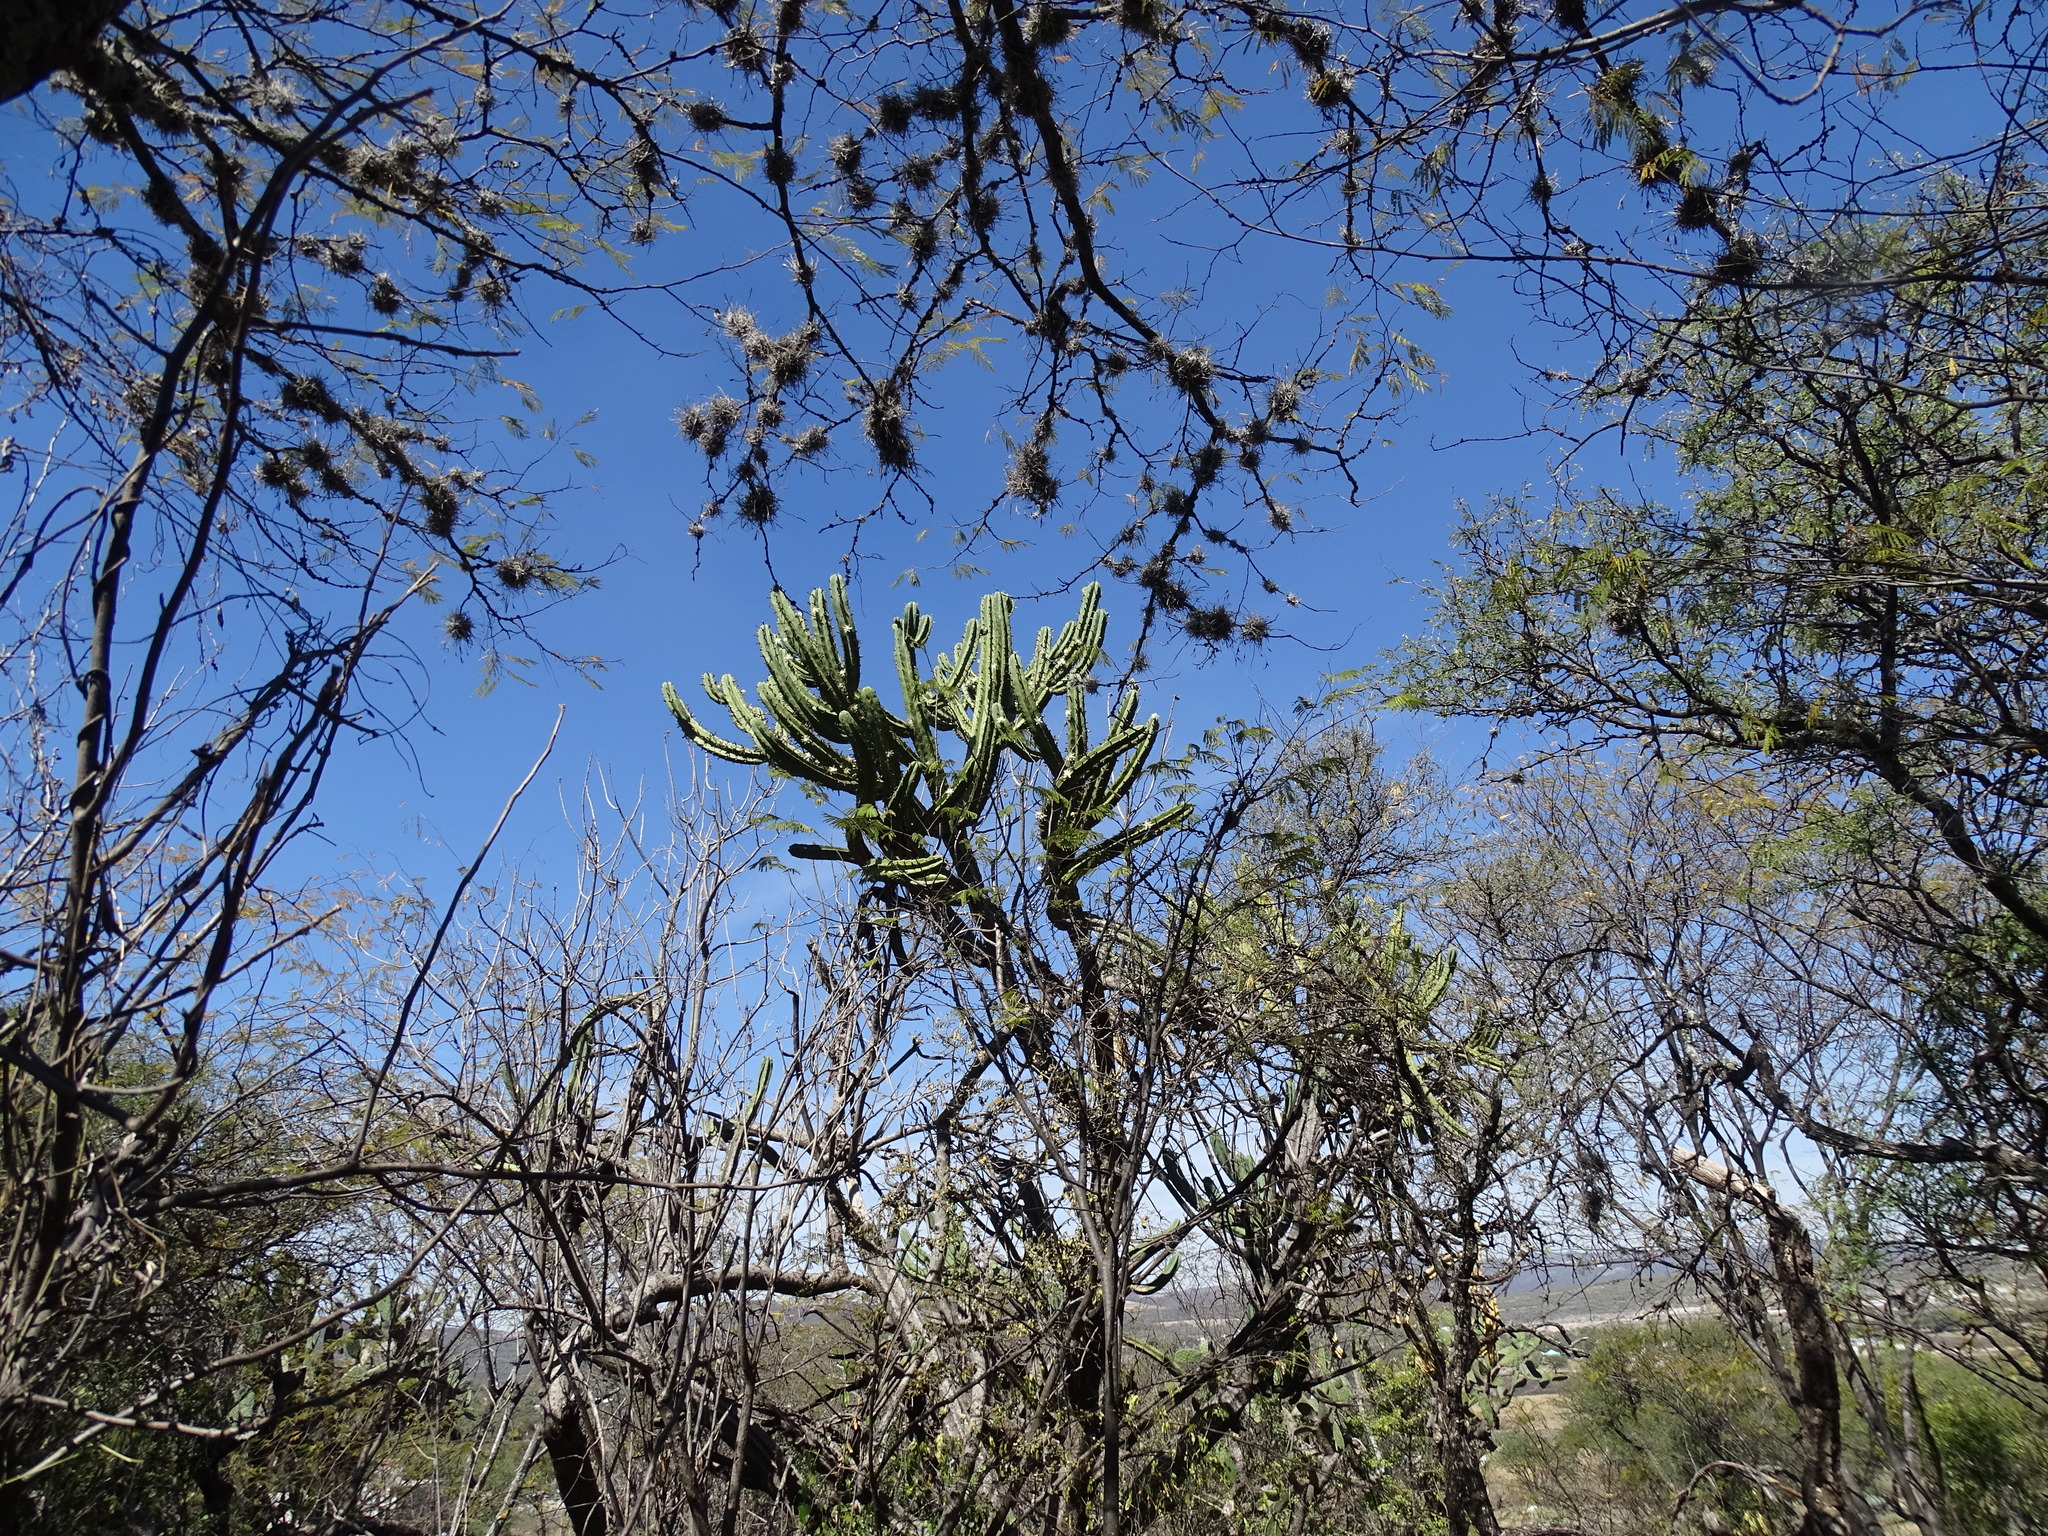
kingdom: Plantae
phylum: Tracheophyta
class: Magnoliopsida
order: Caryophyllales
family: Cactaceae
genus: Myrtillocactus
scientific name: Myrtillocactus geometrizans
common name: Bilberry cactus
